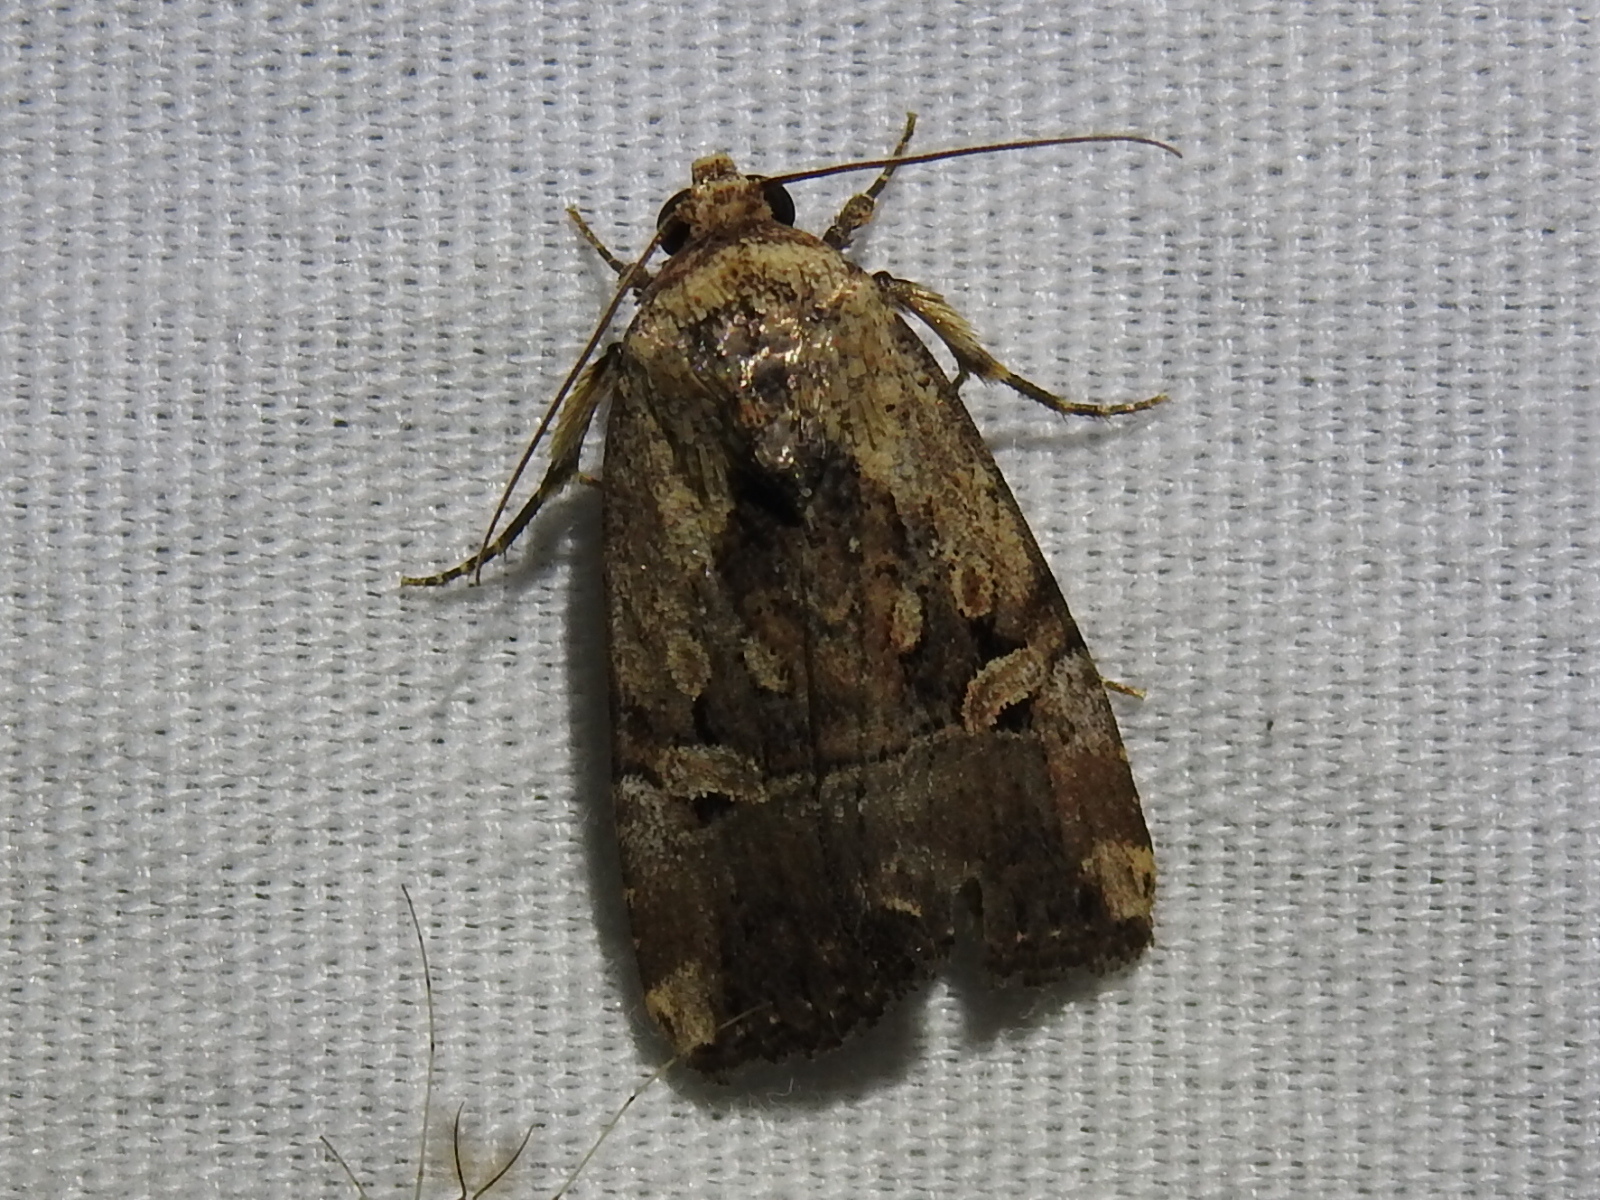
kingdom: Animalia
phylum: Arthropoda
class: Insecta
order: Lepidoptera
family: Noctuidae
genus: Elaphria
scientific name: Elaphria chalcedonia
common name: Chalcedony midget
